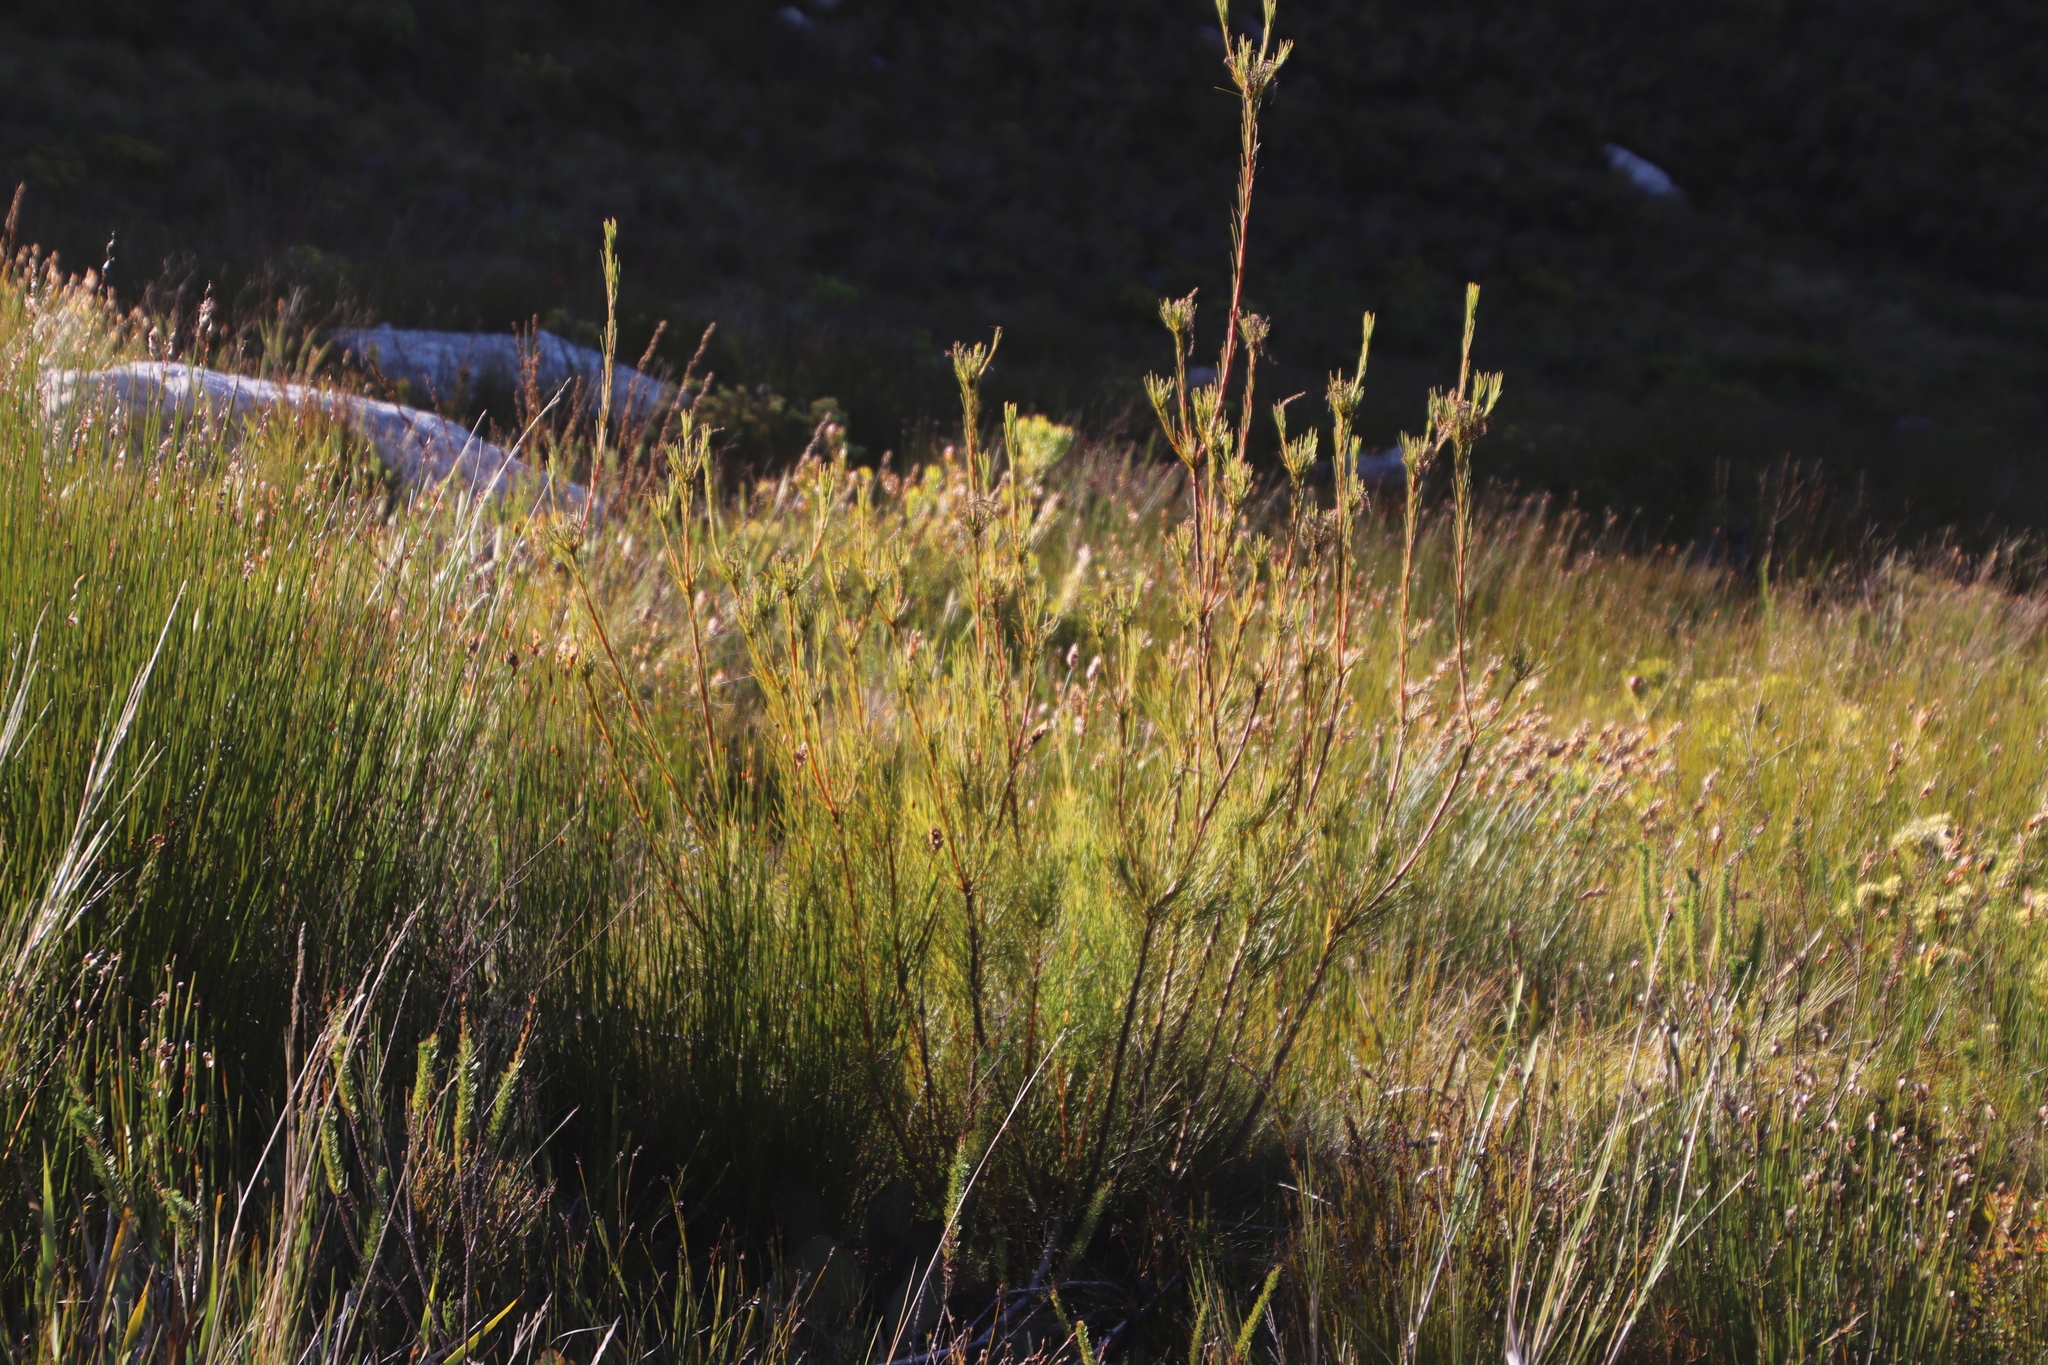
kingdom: Plantae
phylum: Tracheophyta
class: Magnoliopsida
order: Proteales
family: Proteaceae
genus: Aulax
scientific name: Aulax pallasia
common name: Needle-leaf featherbush
